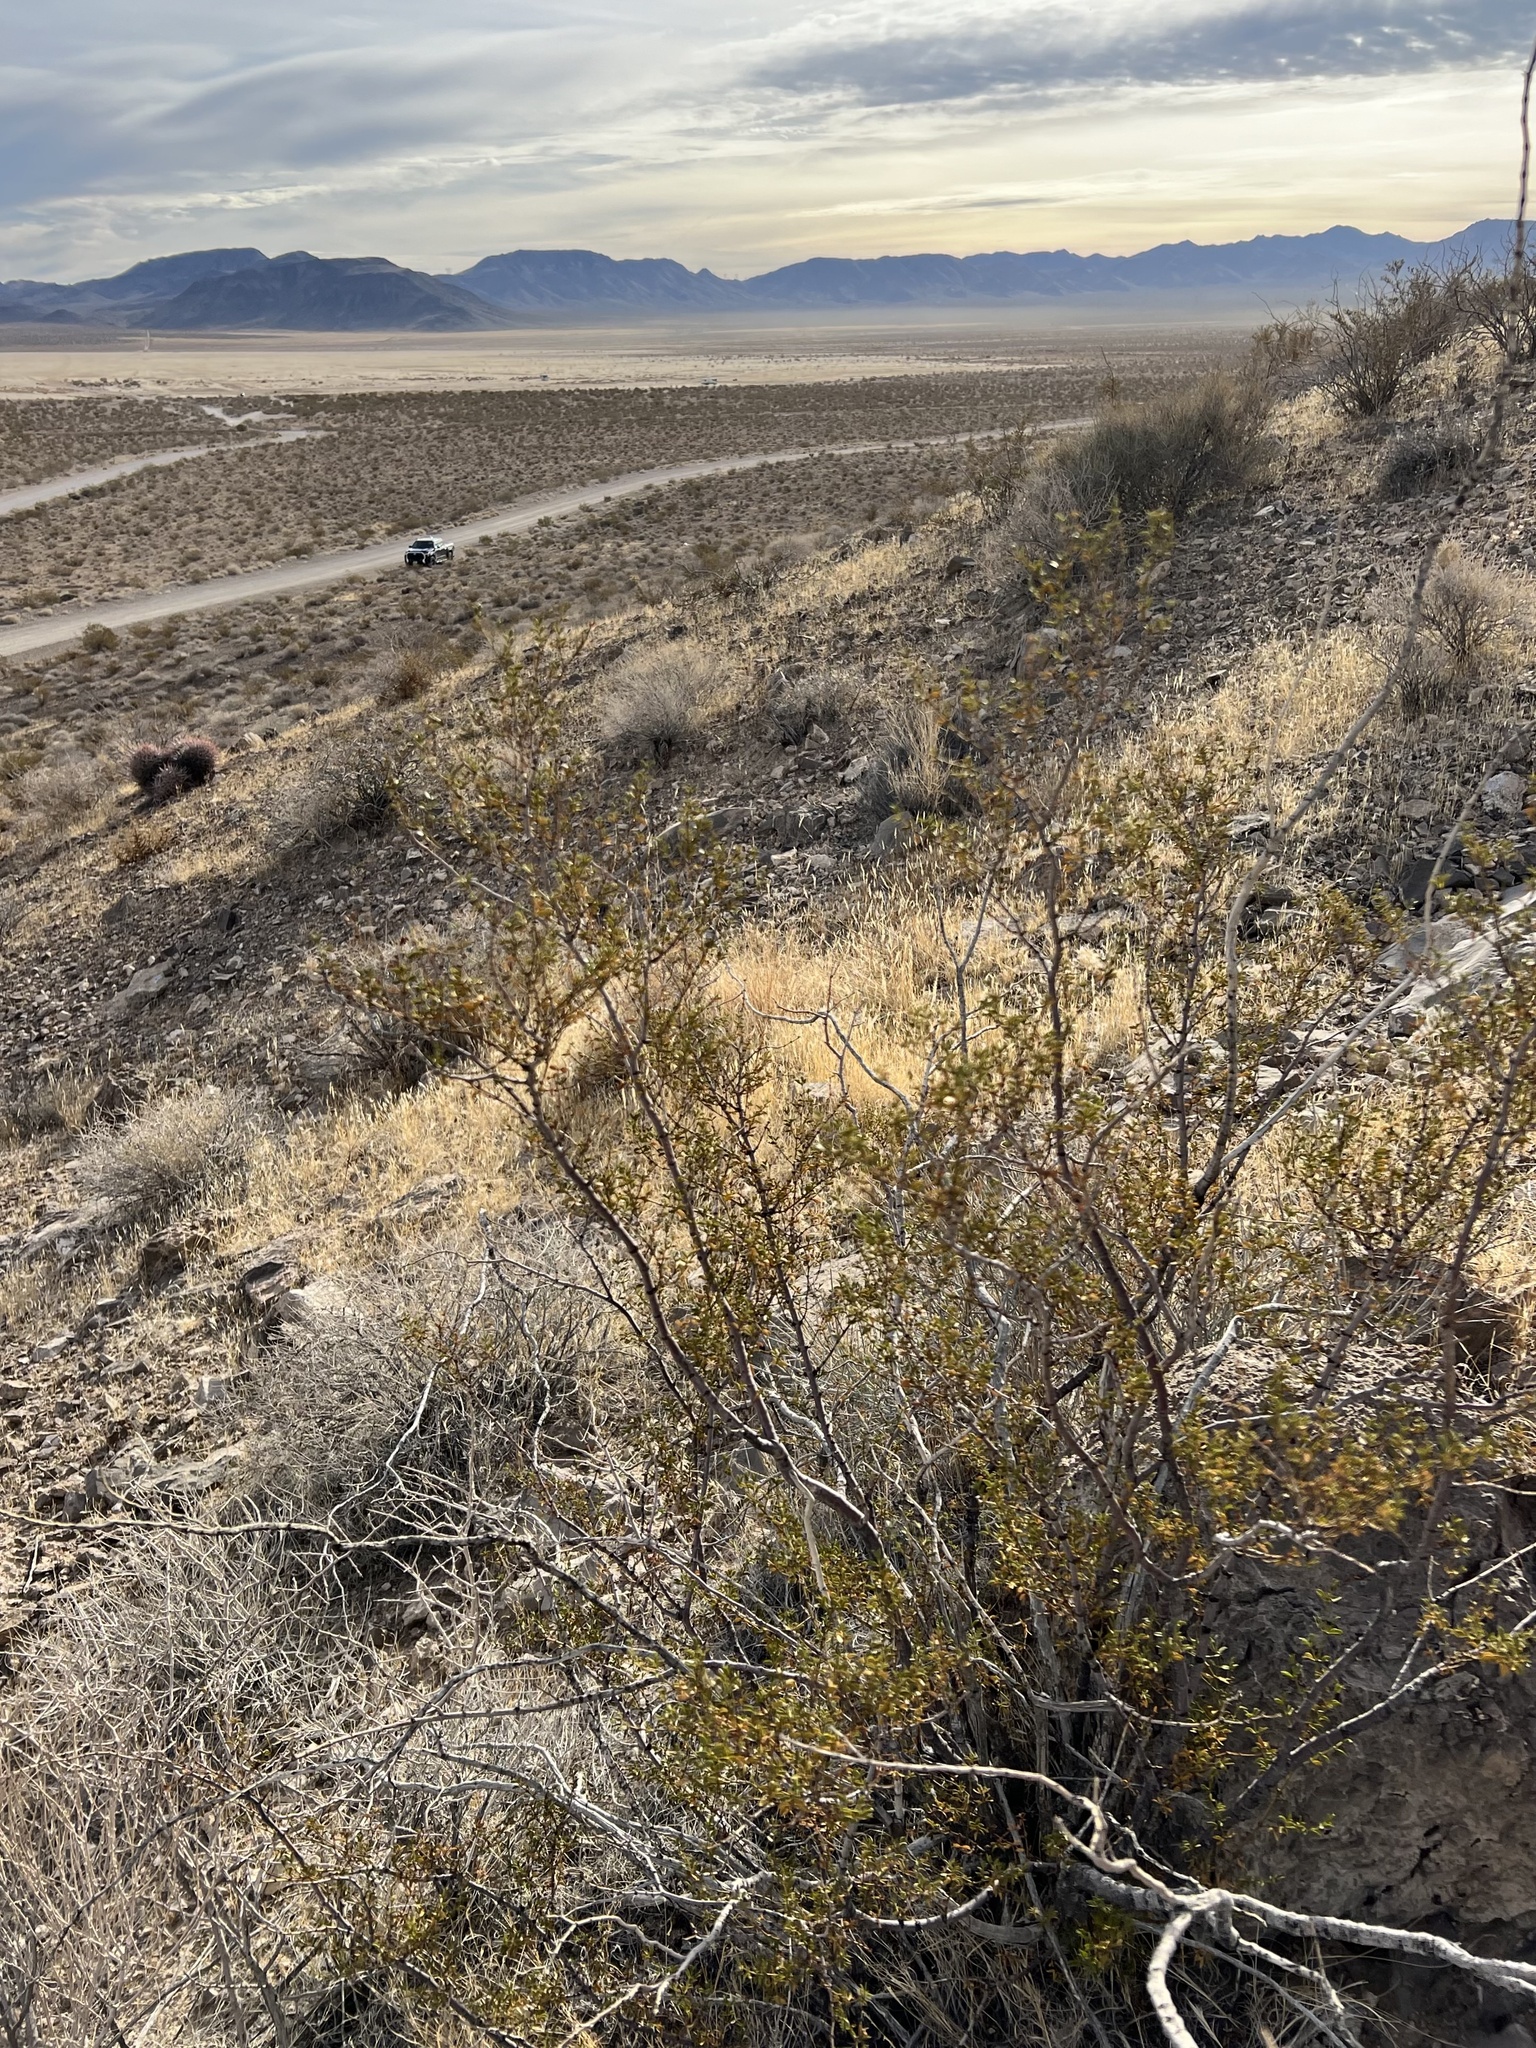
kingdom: Plantae
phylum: Tracheophyta
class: Magnoliopsida
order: Zygophyllales
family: Zygophyllaceae
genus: Larrea
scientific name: Larrea tridentata
